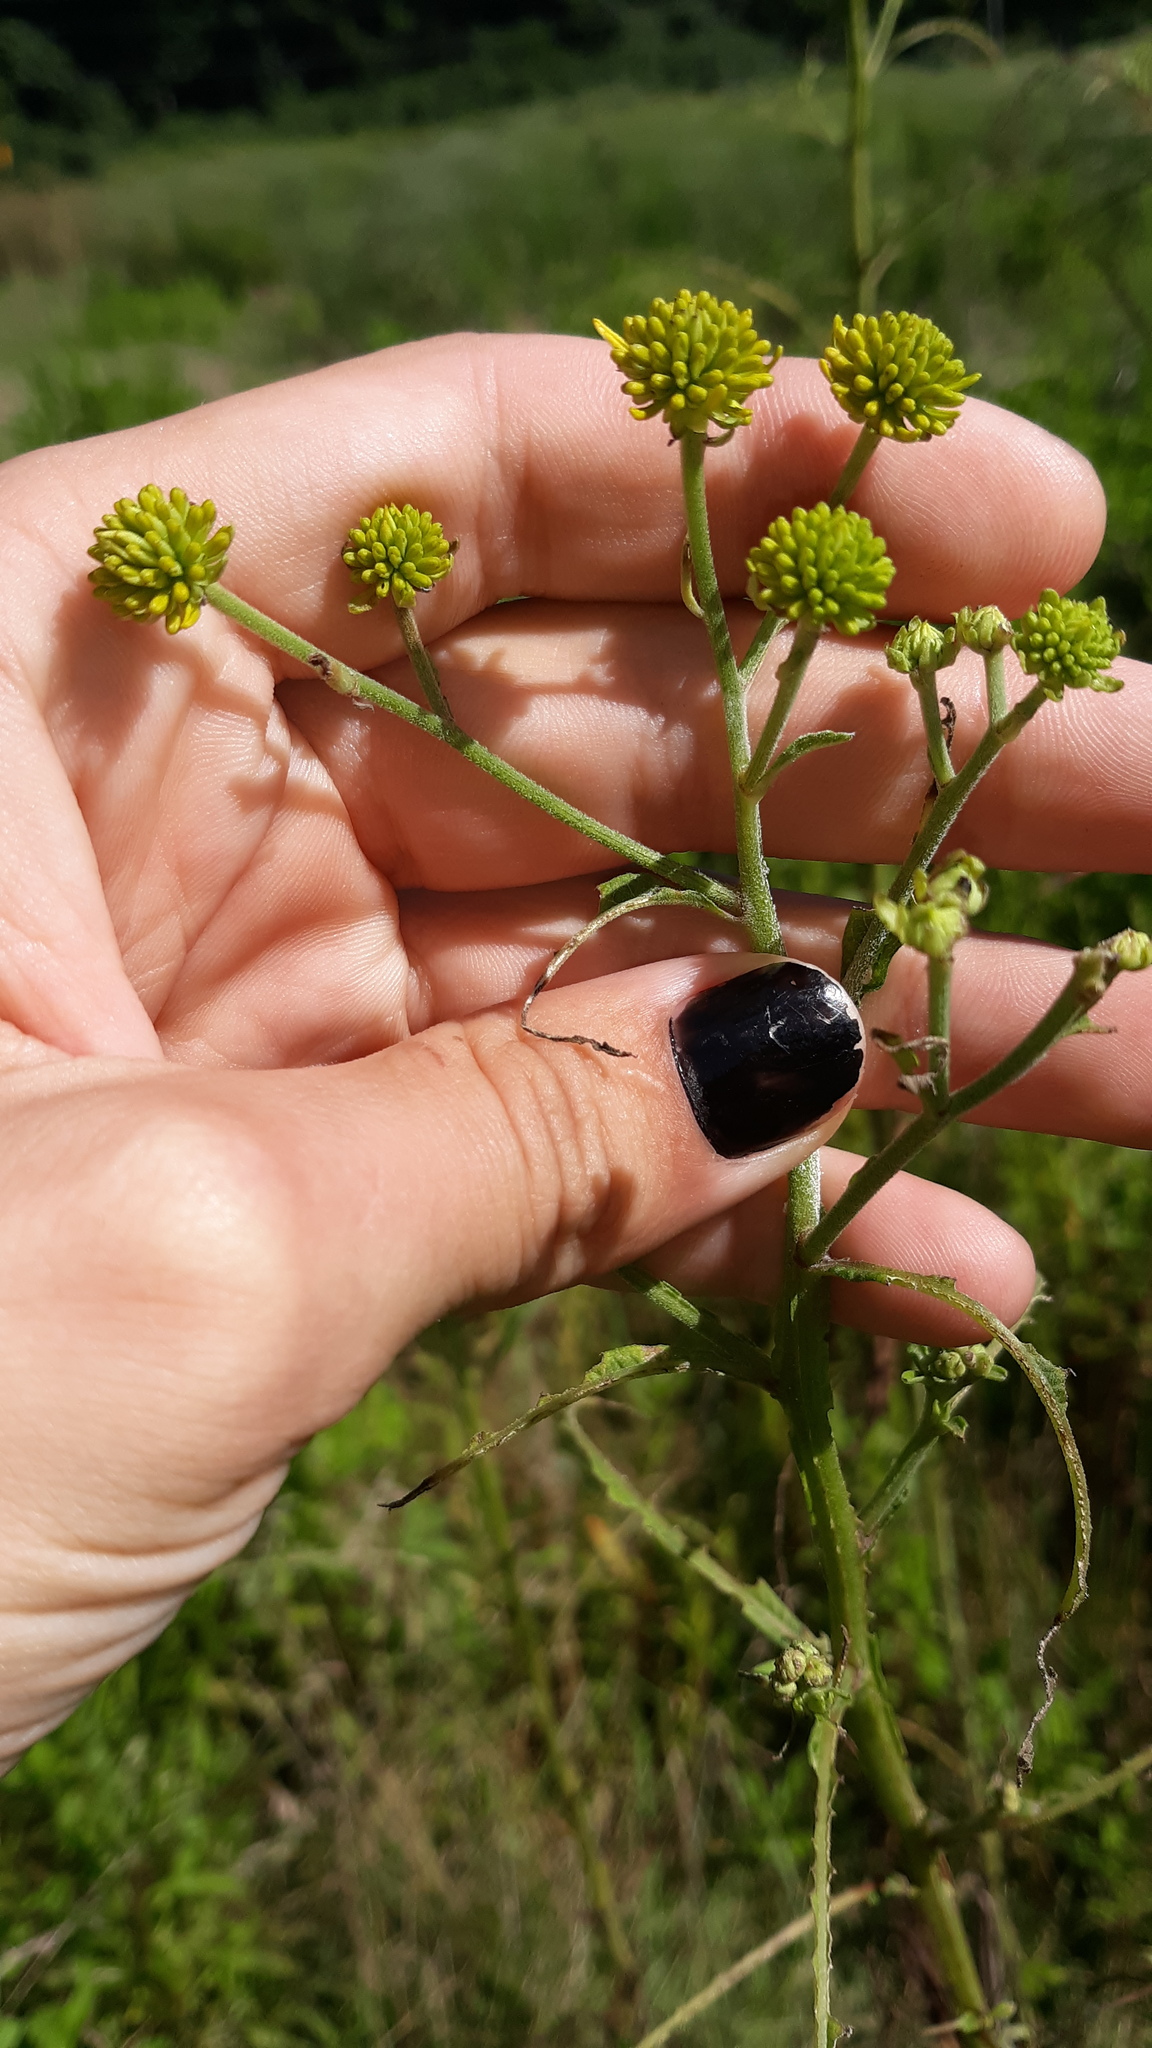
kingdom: Plantae
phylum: Tracheophyta
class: Magnoliopsida
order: Asterales
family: Asteraceae
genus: Verbesina
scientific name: Verbesina alternifolia
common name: Wingstem
